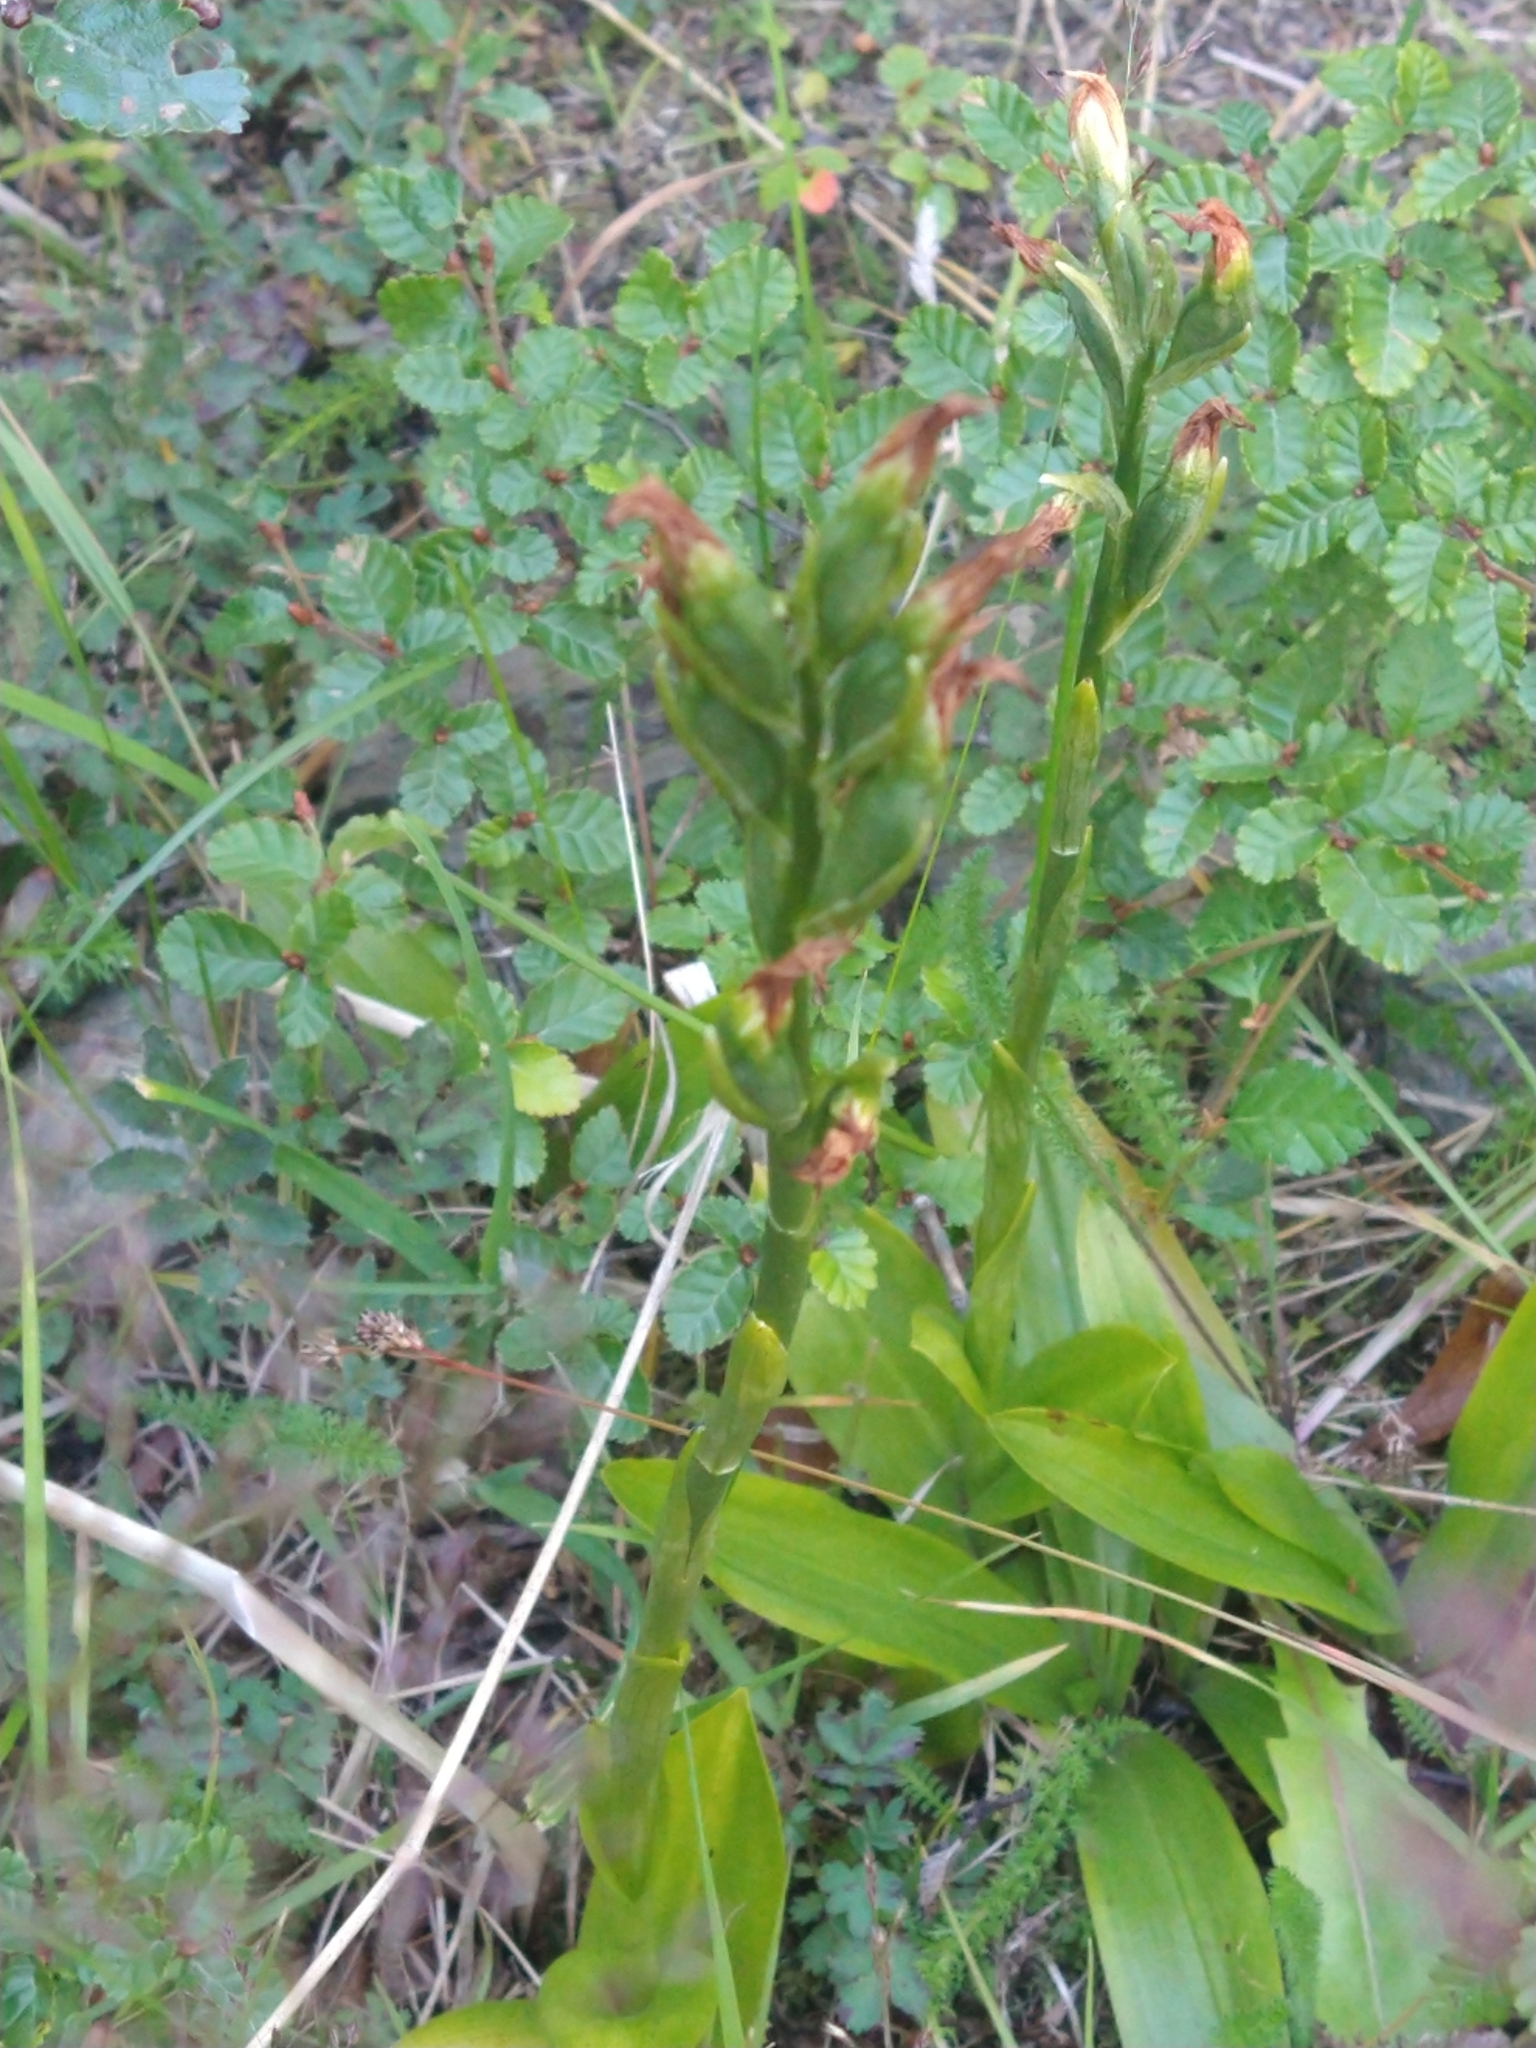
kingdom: Plantae
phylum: Tracheophyta
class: Liliopsida
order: Asparagales
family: Orchidaceae
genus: Gavilea
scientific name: Gavilea australis
